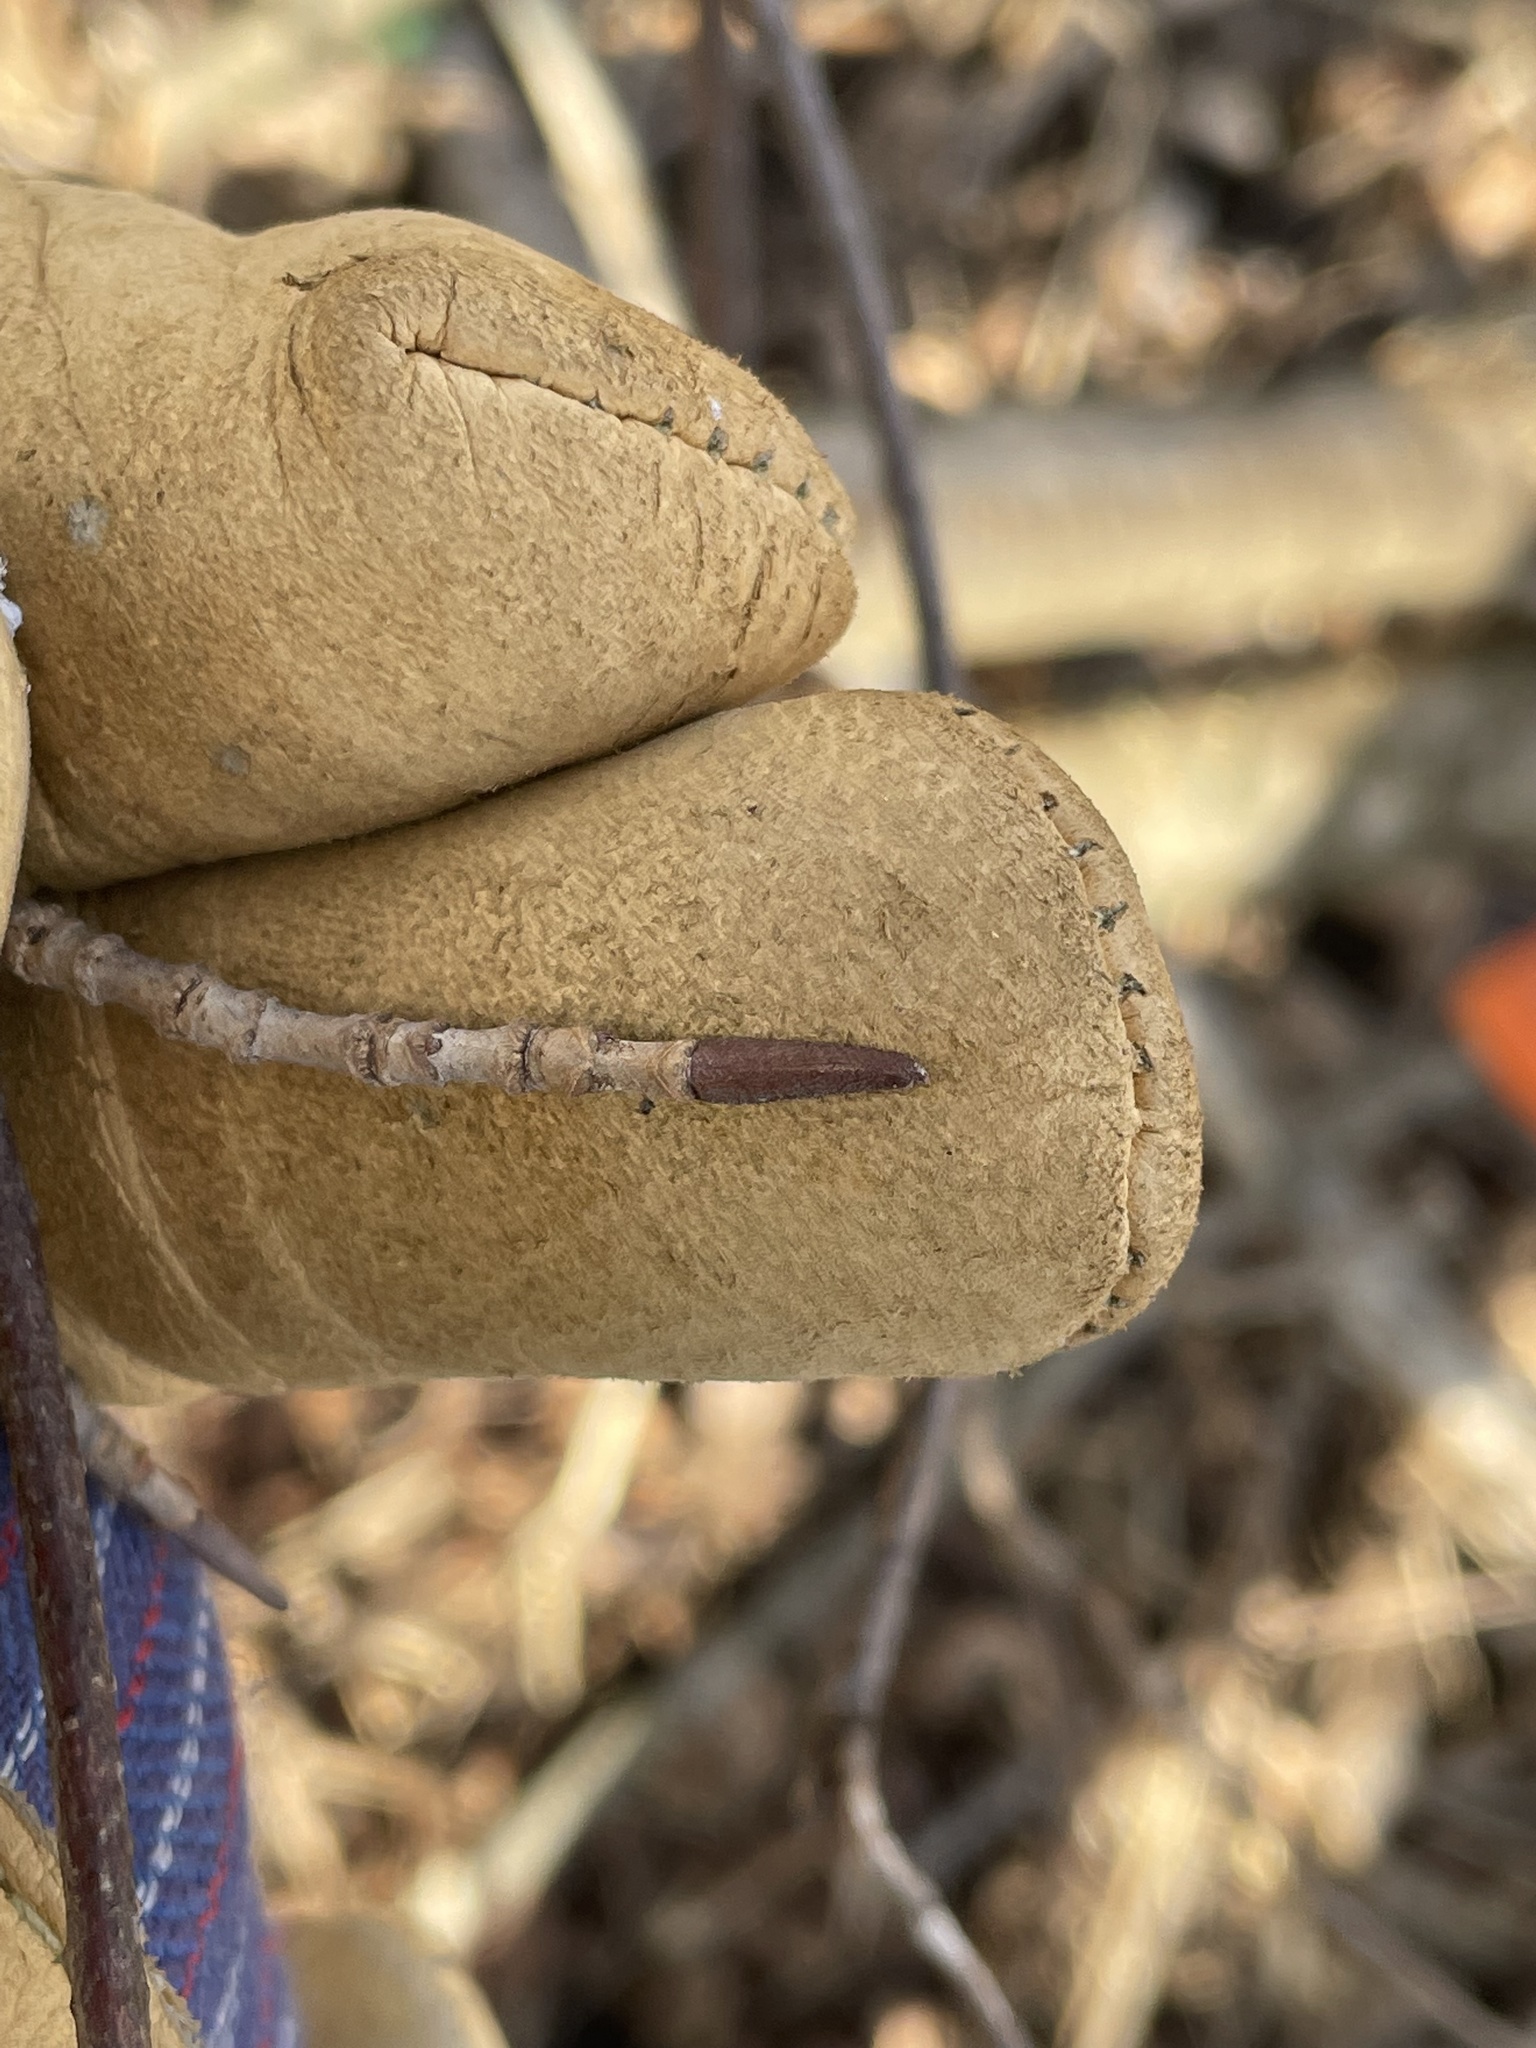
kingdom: Plantae
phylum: Tracheophyta
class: Magnoliopsida
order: Dipsacales
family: Viburnaceae
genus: Viburnum
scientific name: Viburnum lentago
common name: Black haw
